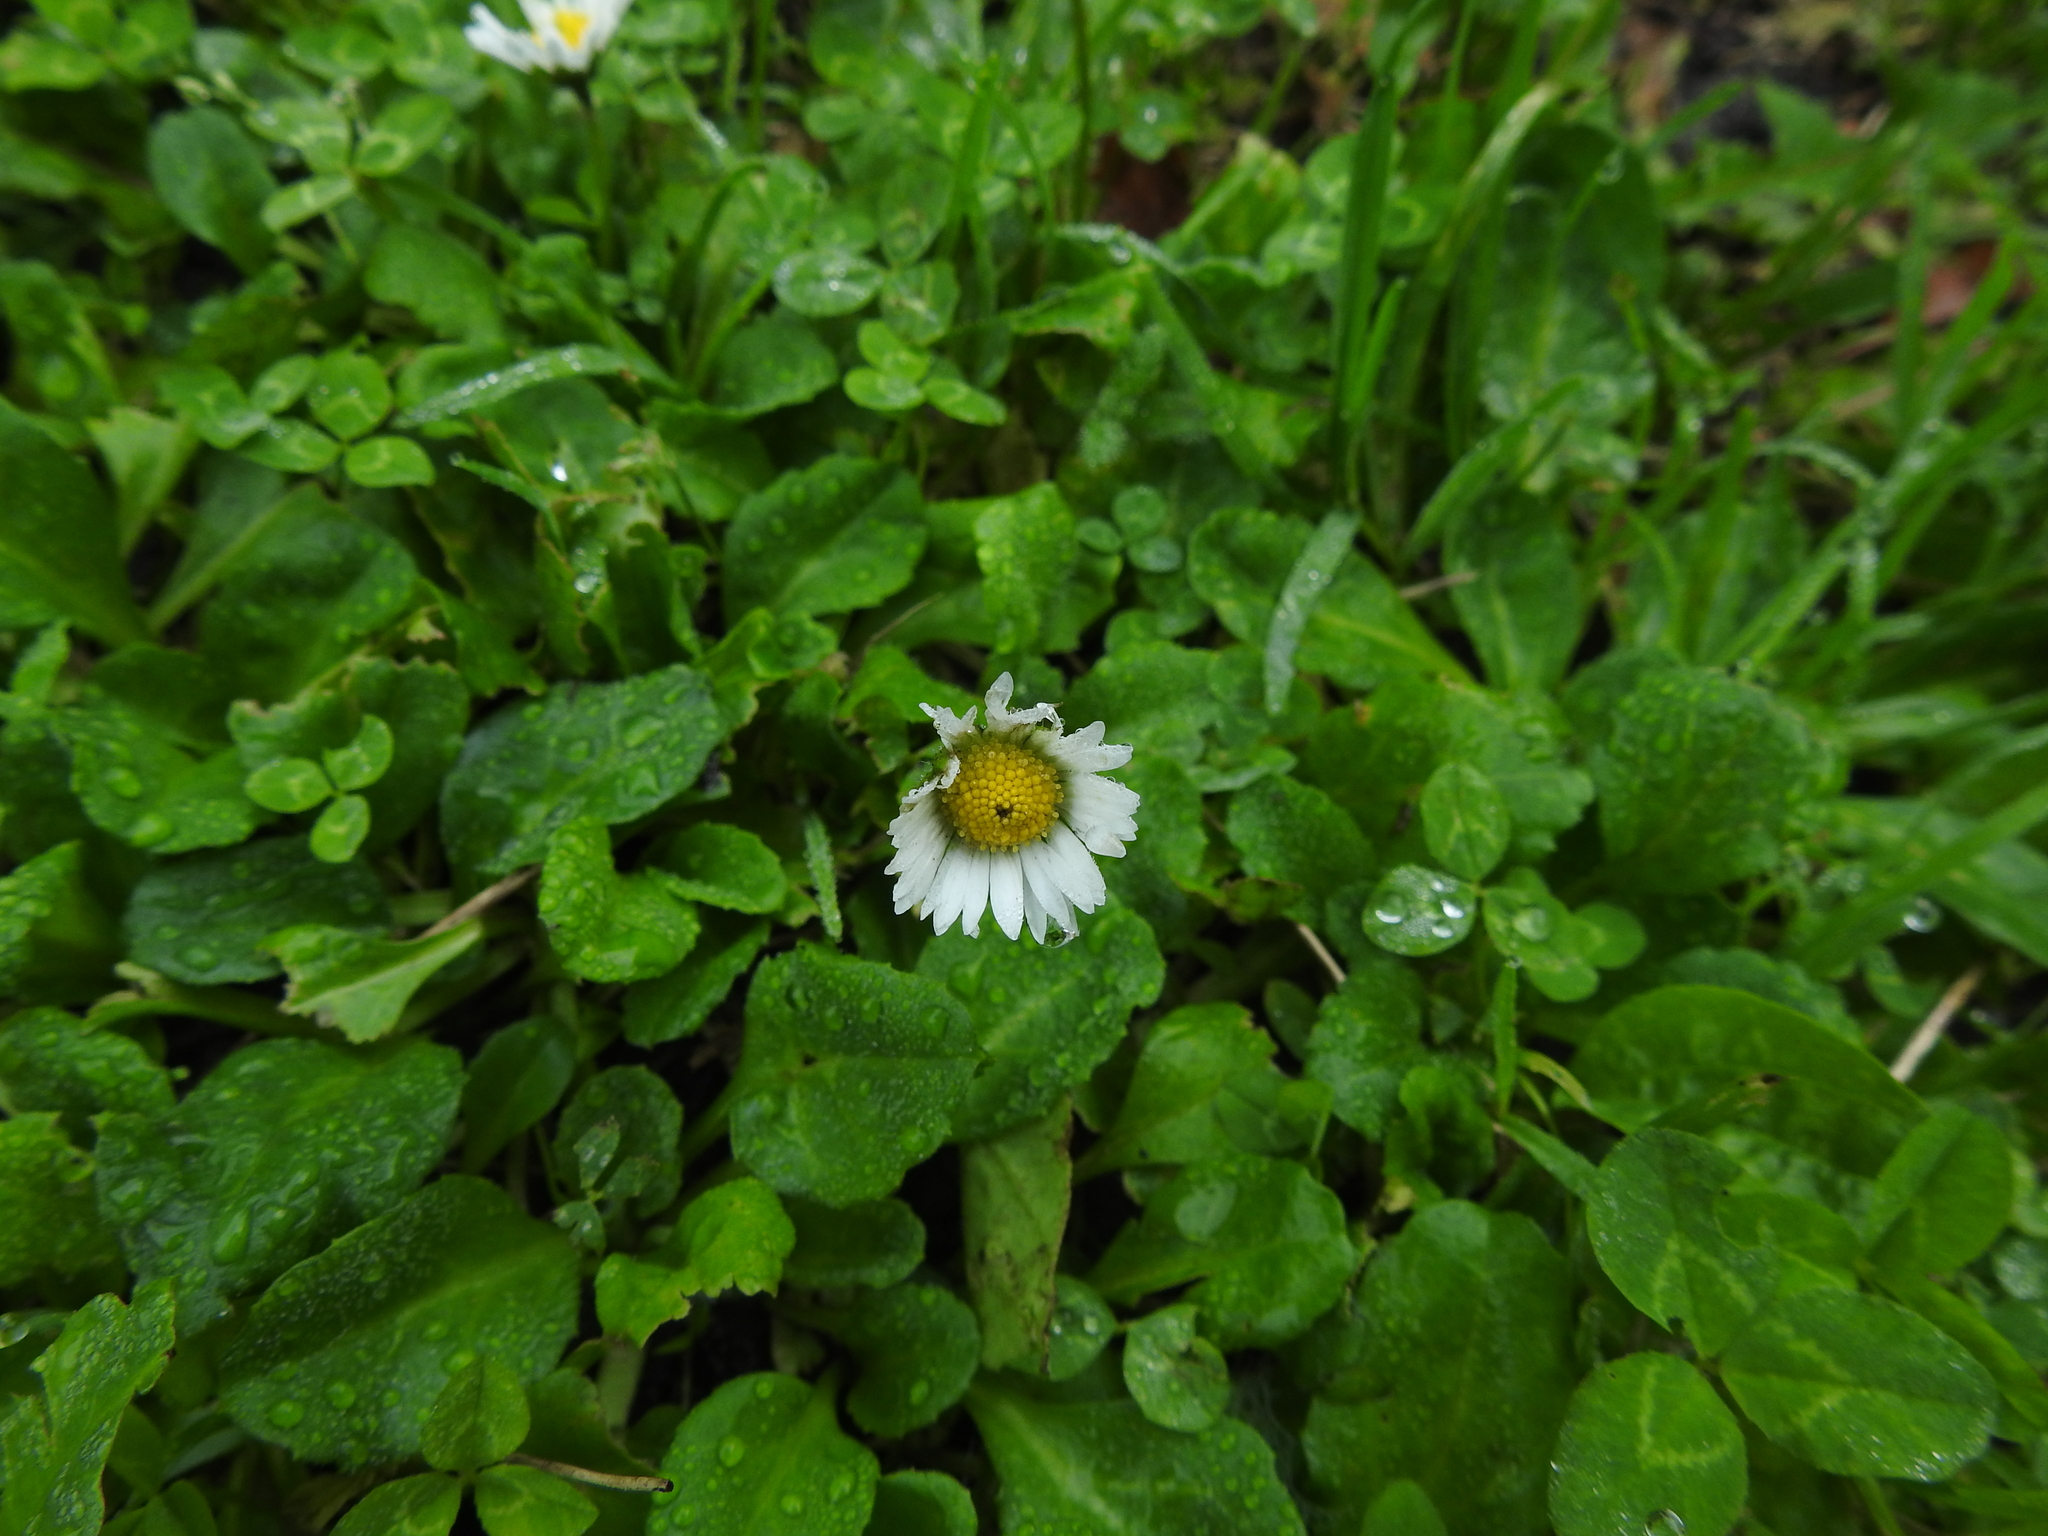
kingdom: Plantae
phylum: Tracheophyta
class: Magnoliopsida
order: Asterales
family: Asteraceae
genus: Bellis
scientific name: Bellis perennis
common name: Lawndaisy
